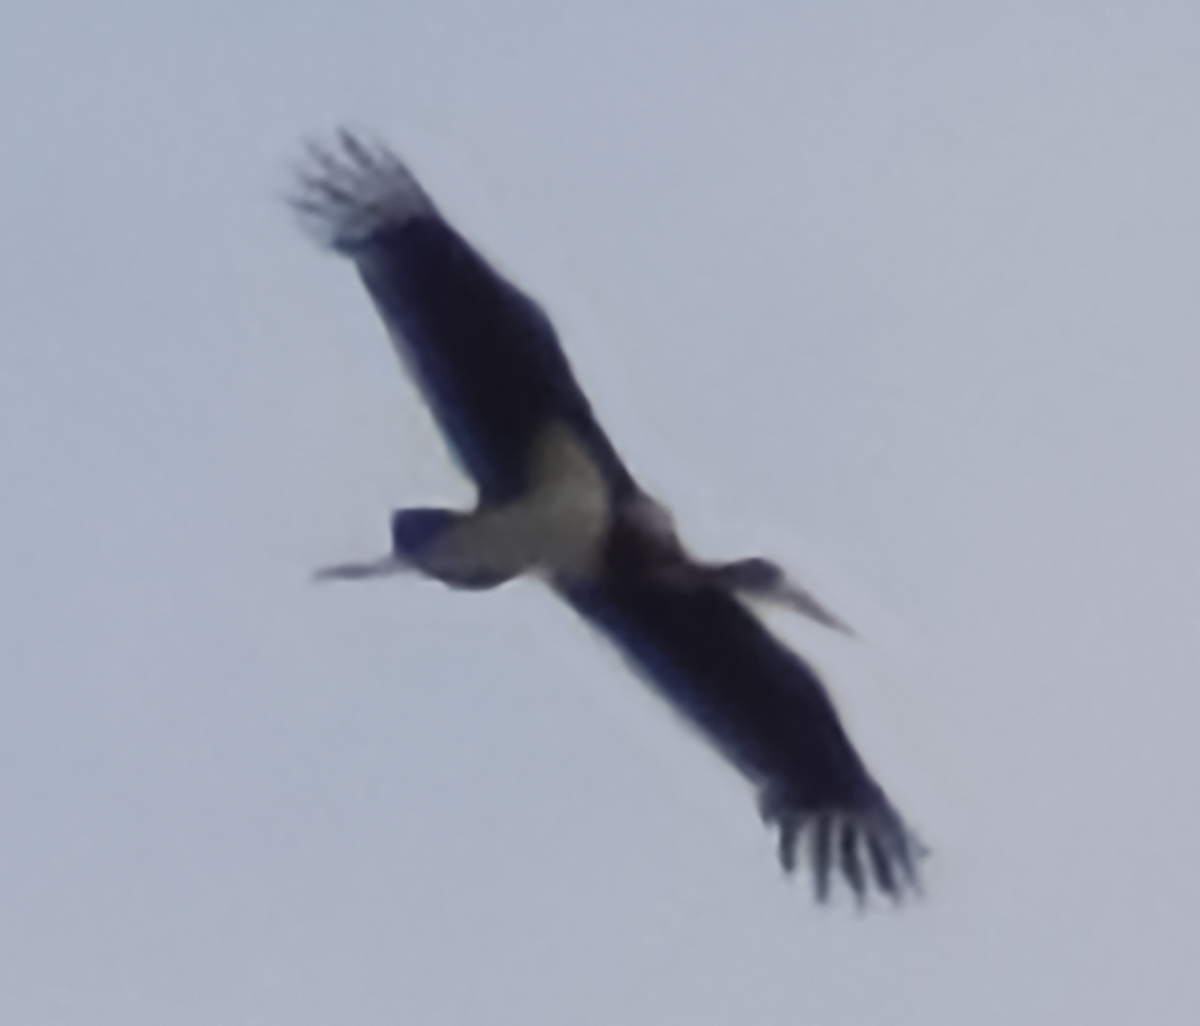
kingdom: Animalia
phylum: Chordata
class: Aves
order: Ciconiiformes
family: Ciconiidae
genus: Ciconia
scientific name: Ciconia nigra
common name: Black stork
